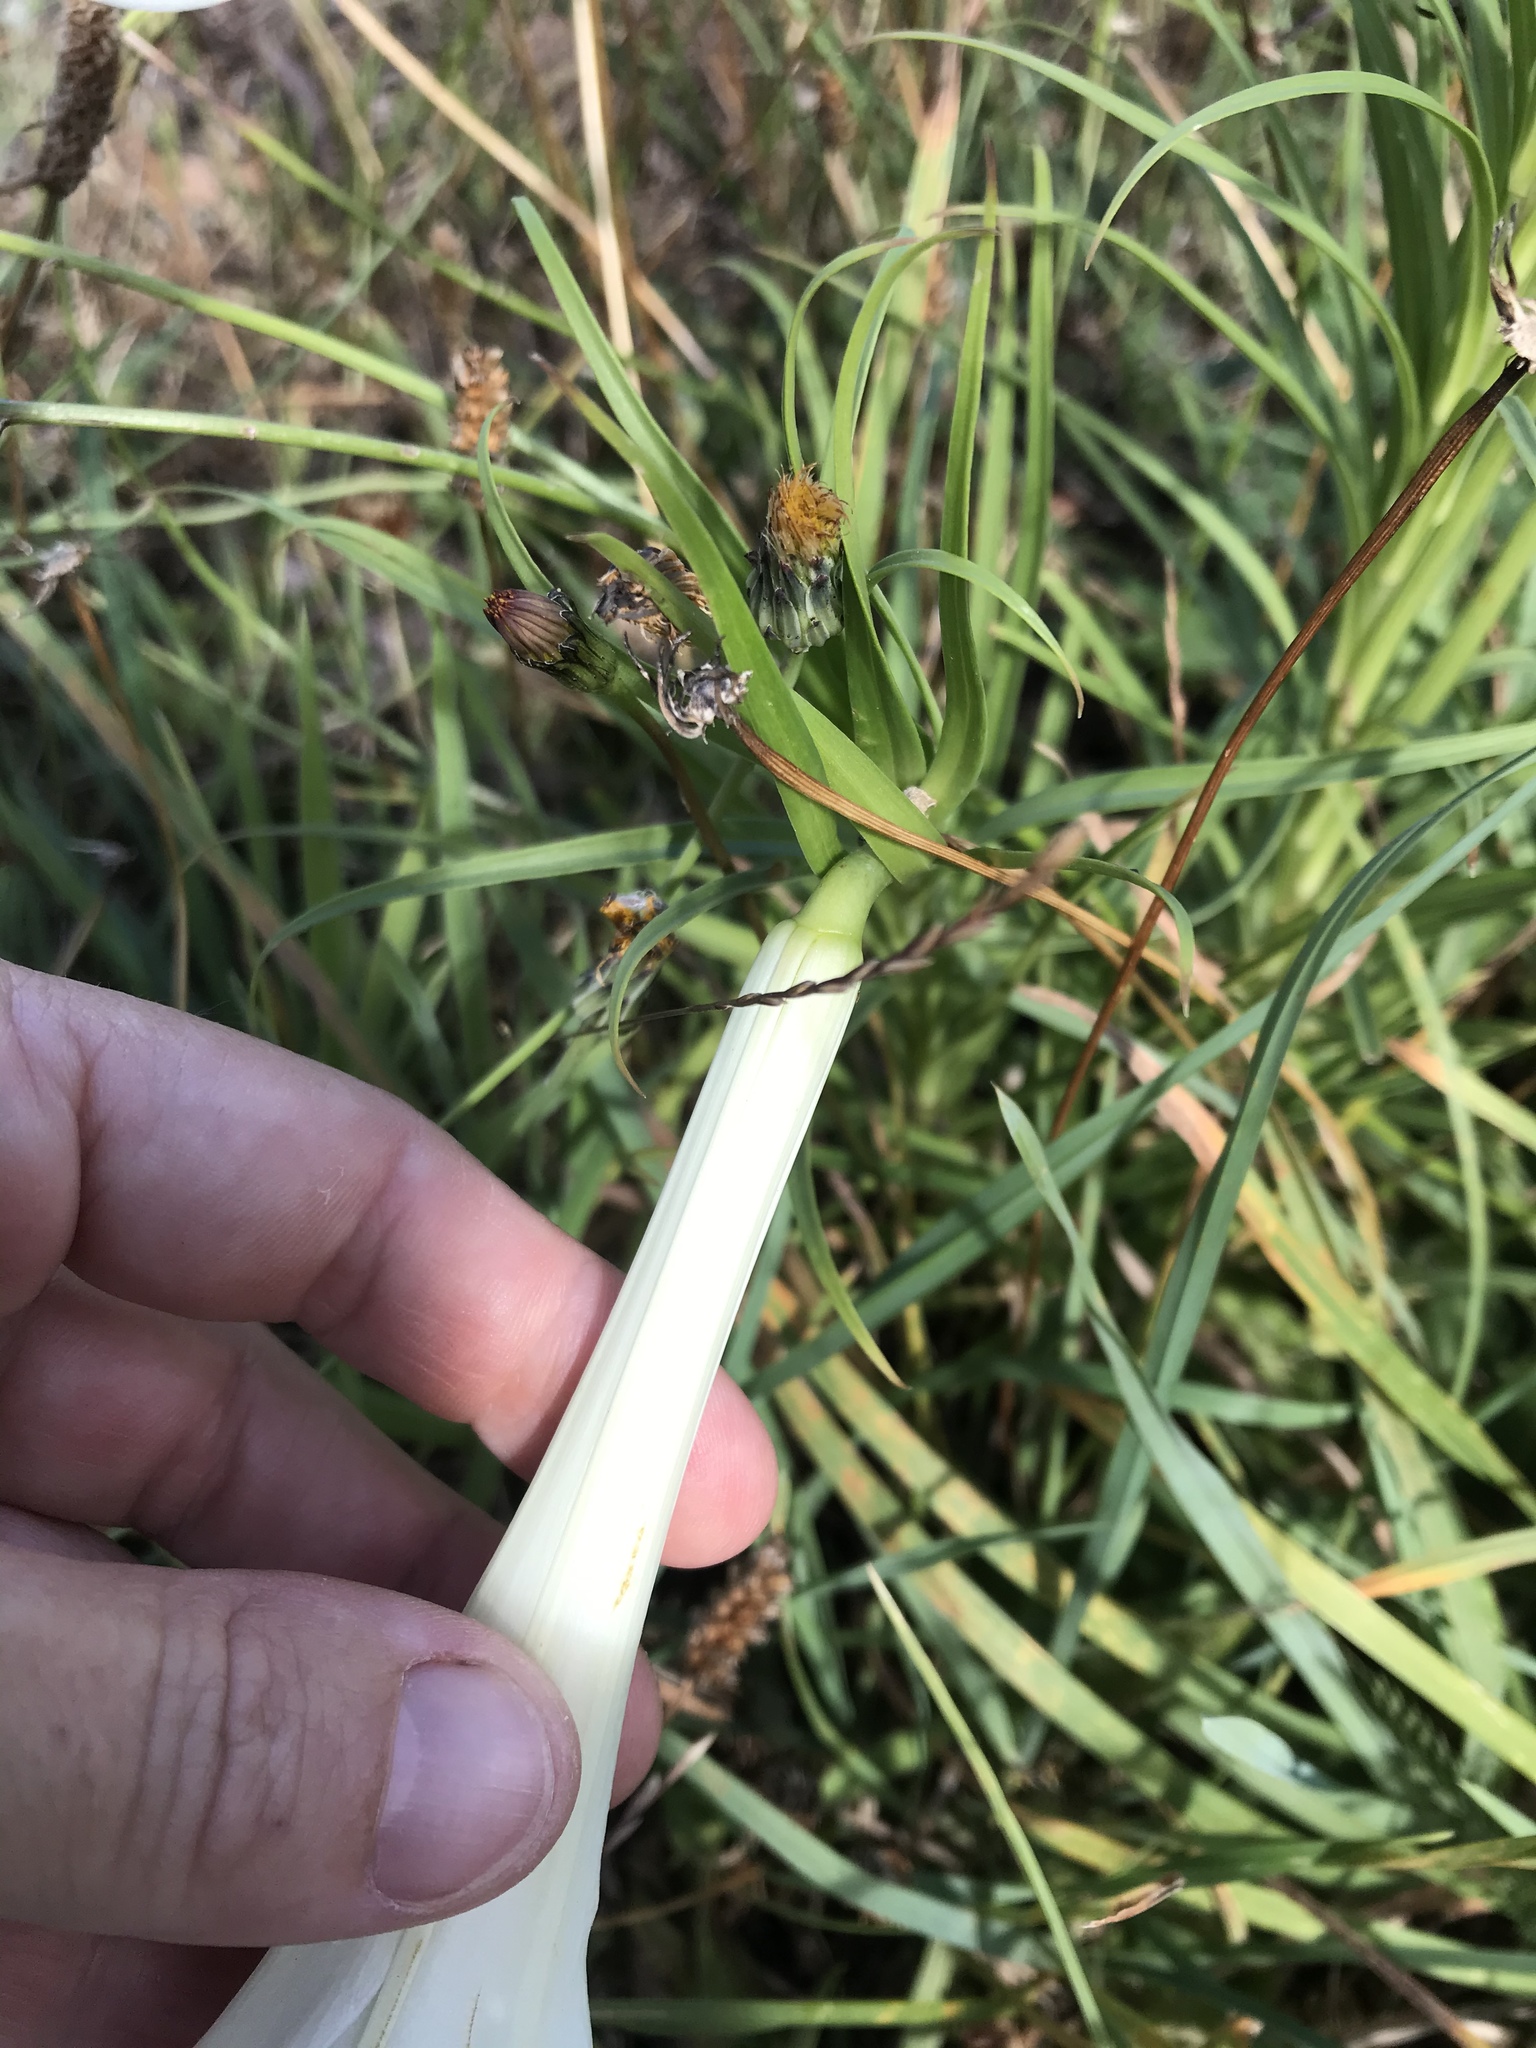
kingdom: Plantae
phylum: Tracheophyta
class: Liliopsida
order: Liliales
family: Liliaceae
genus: Lilium
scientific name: Lilium formosanum
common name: Formosa lily
